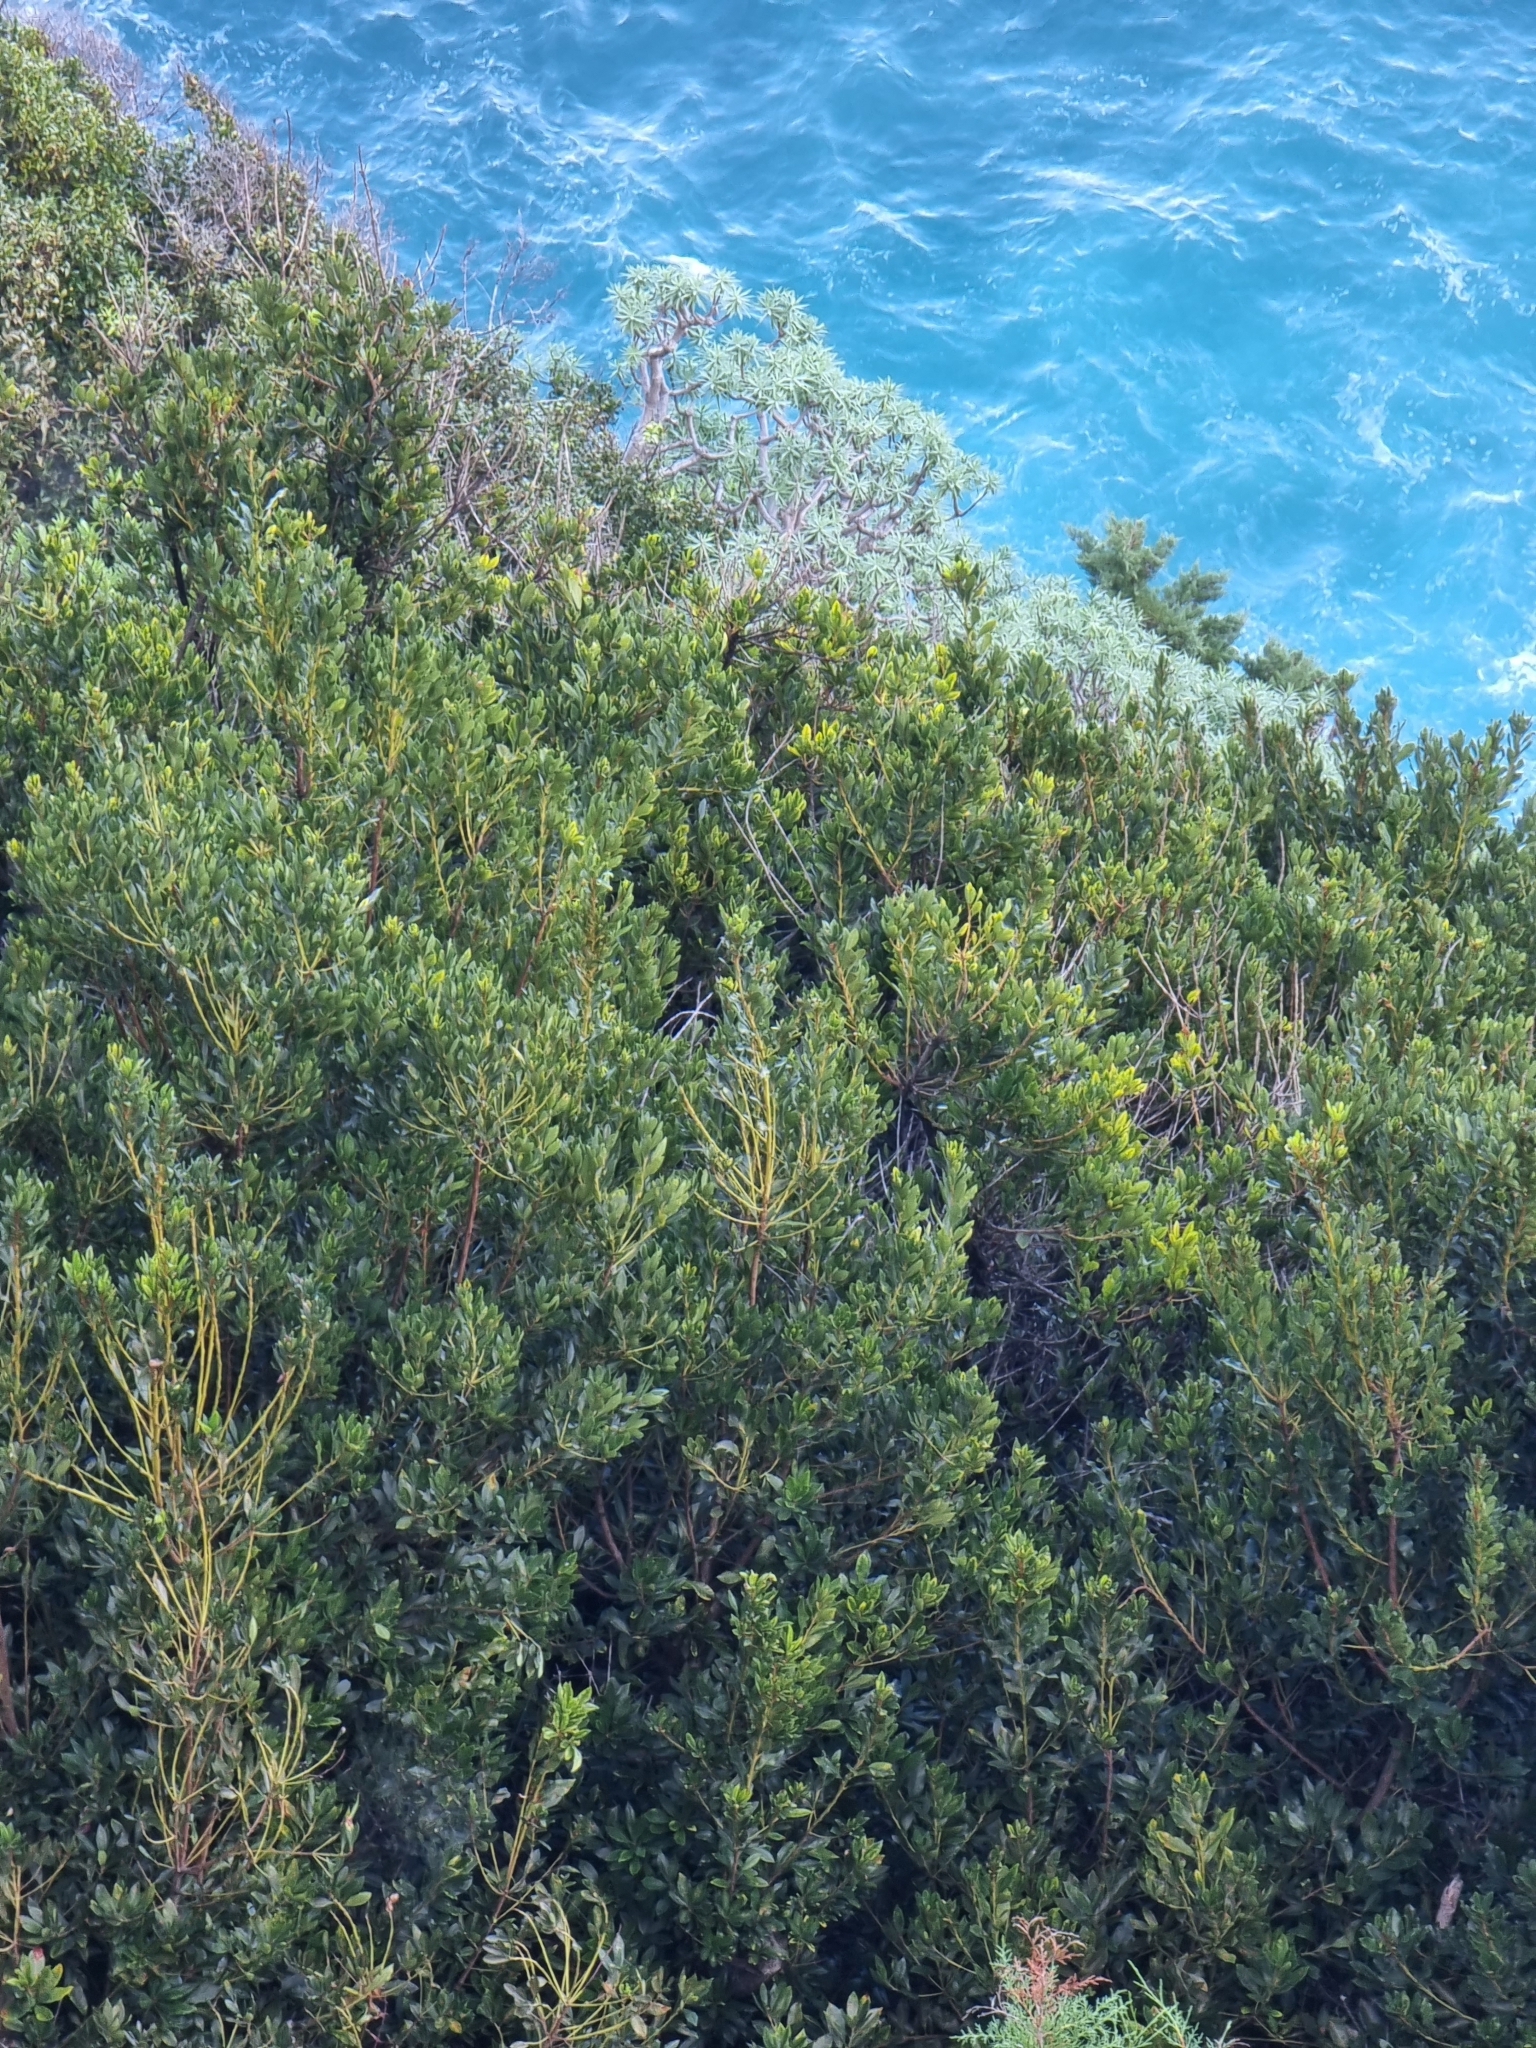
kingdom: Plantae
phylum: Tracheophyta
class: Magnoliopsida
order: Fagales
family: Myricaceae
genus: Morella
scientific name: Morella faya
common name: Firetree
